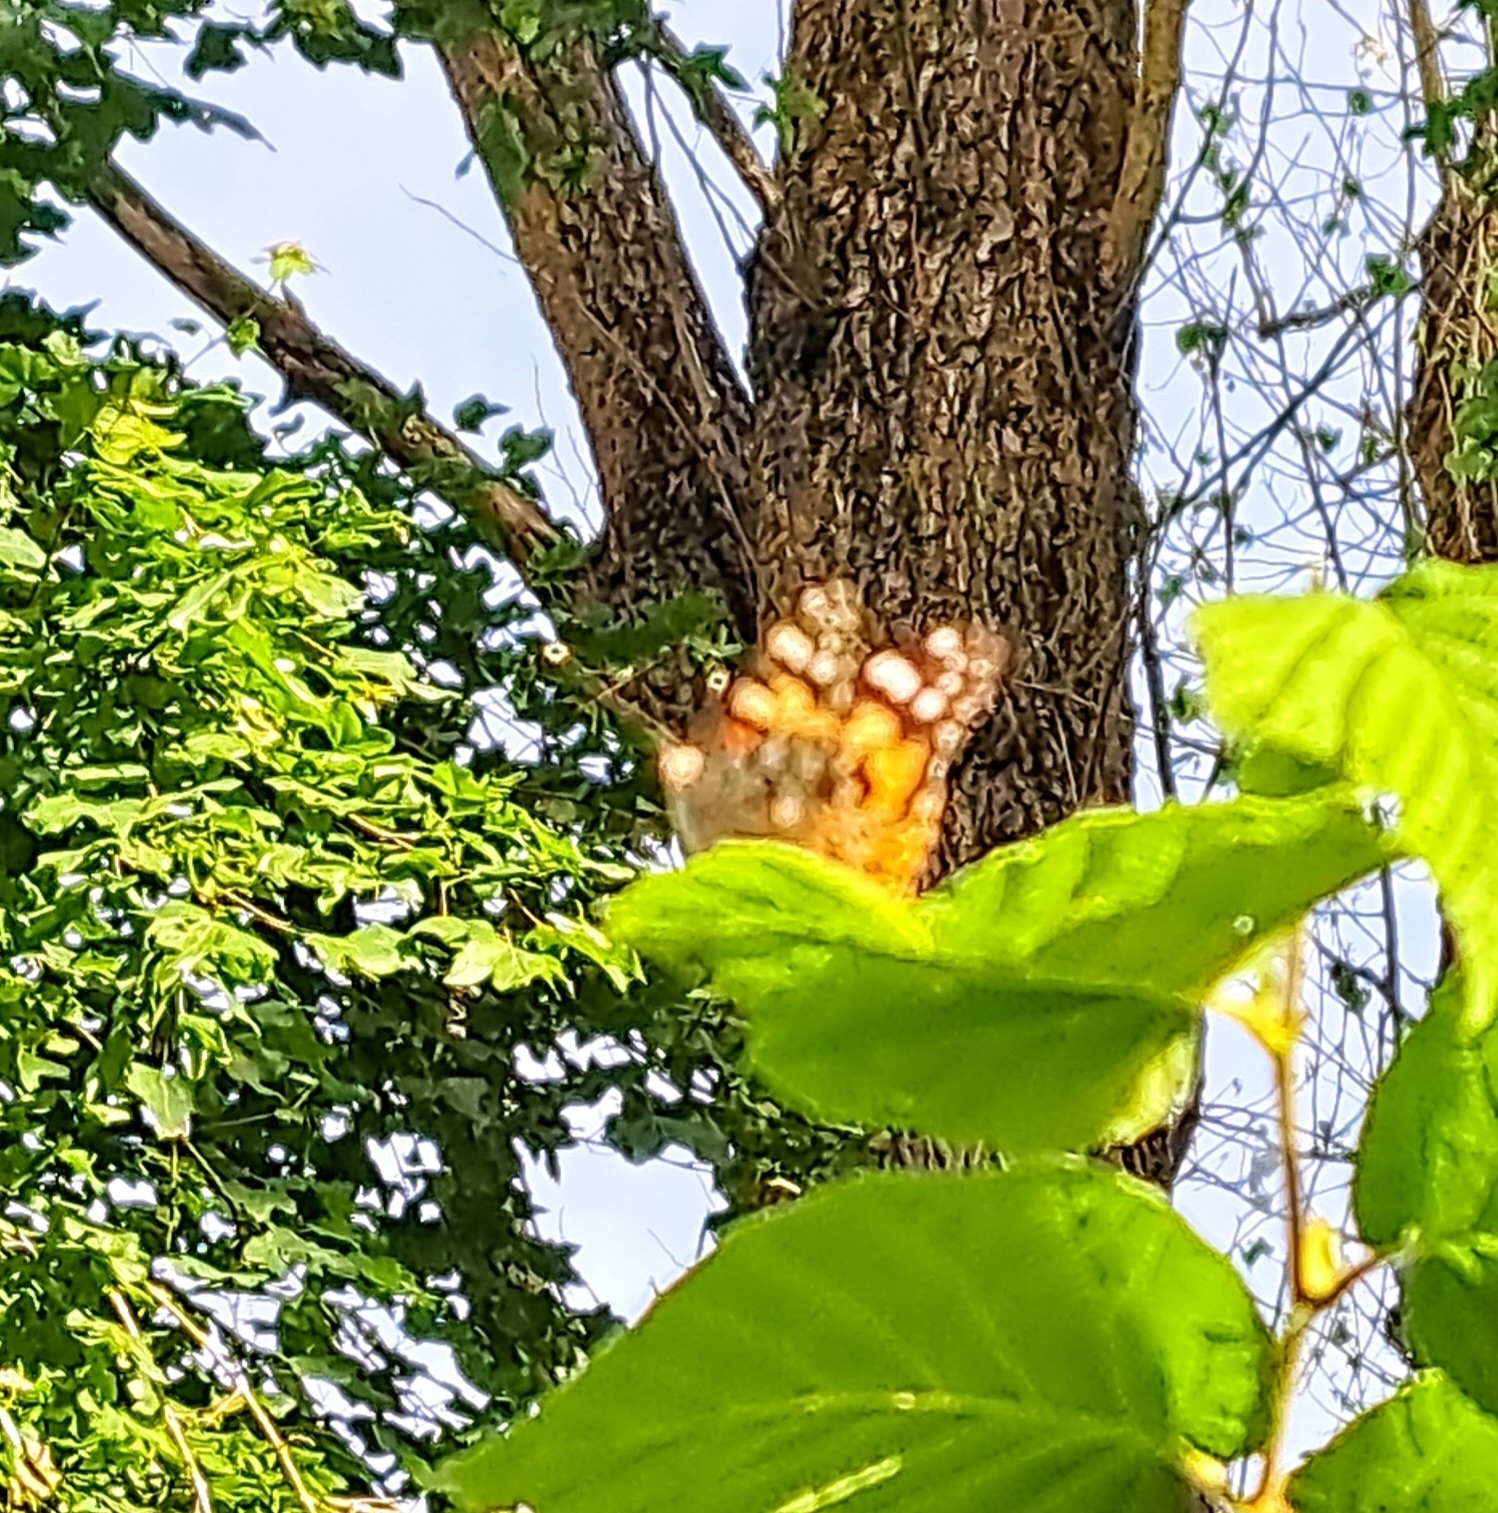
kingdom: Animalia
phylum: Arthropoda
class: Insecta
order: Lepidoptera
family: Nymphalidae
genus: Vanessa
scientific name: Vanessa cardui
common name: Painted lady
